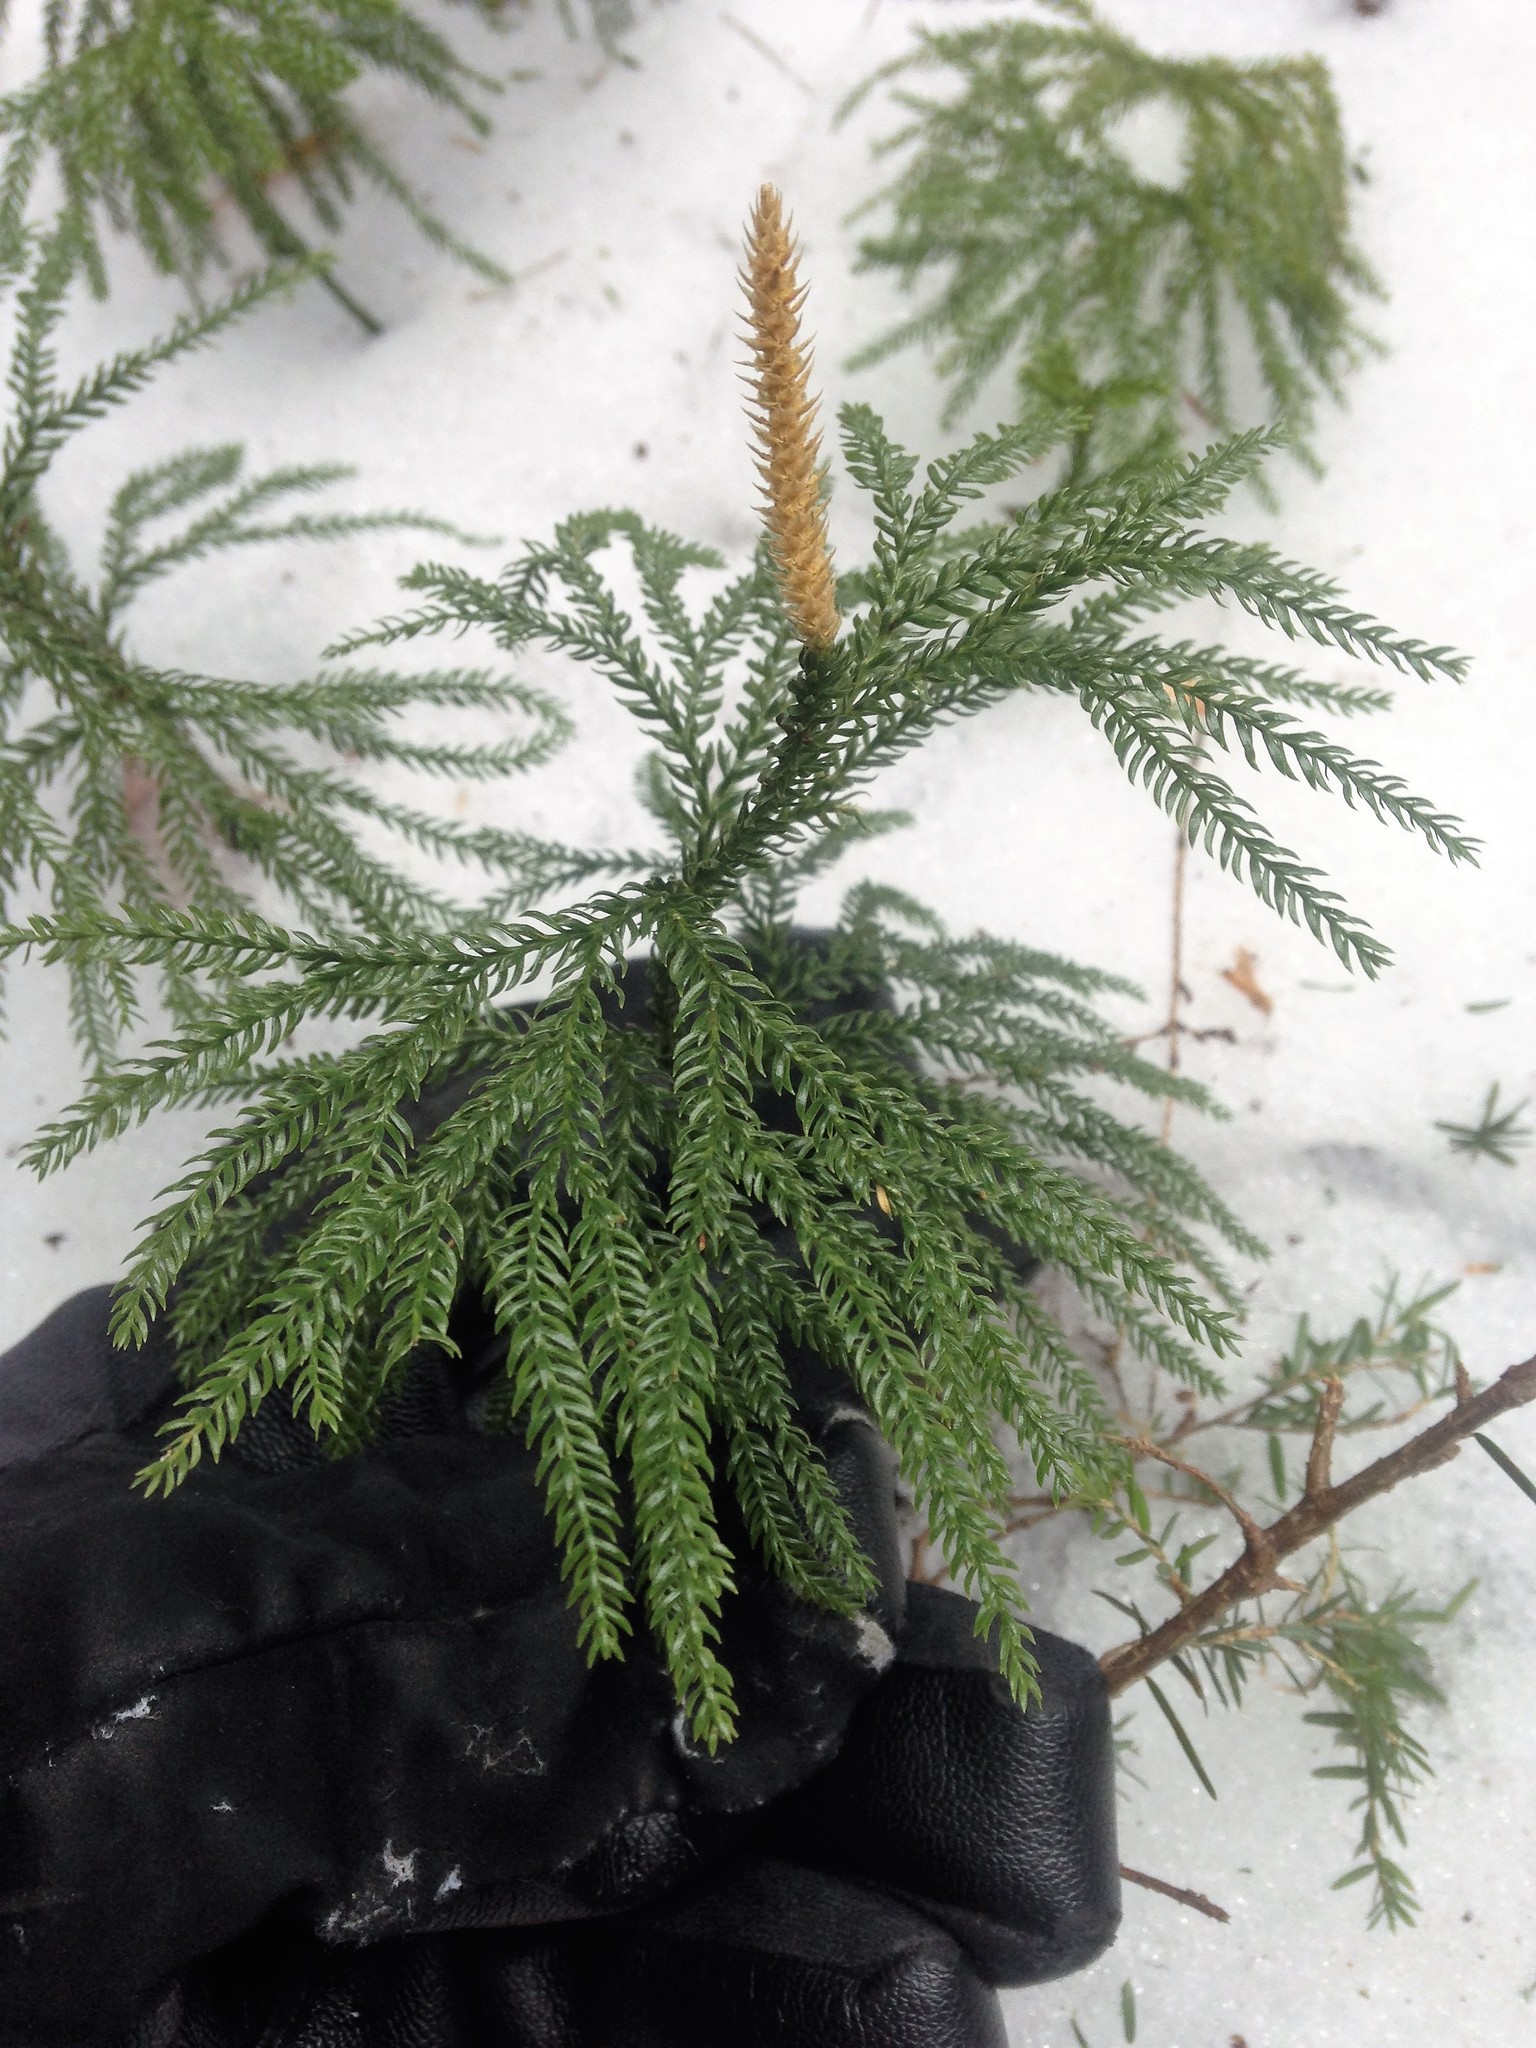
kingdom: Plantae
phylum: Tracheophyta
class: Lycopodiopsida
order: Lycopodiales
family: Lycopodiaceae
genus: Dendrolycopodium
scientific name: Dendrolycopodium obscurum
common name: Common ground-pine
